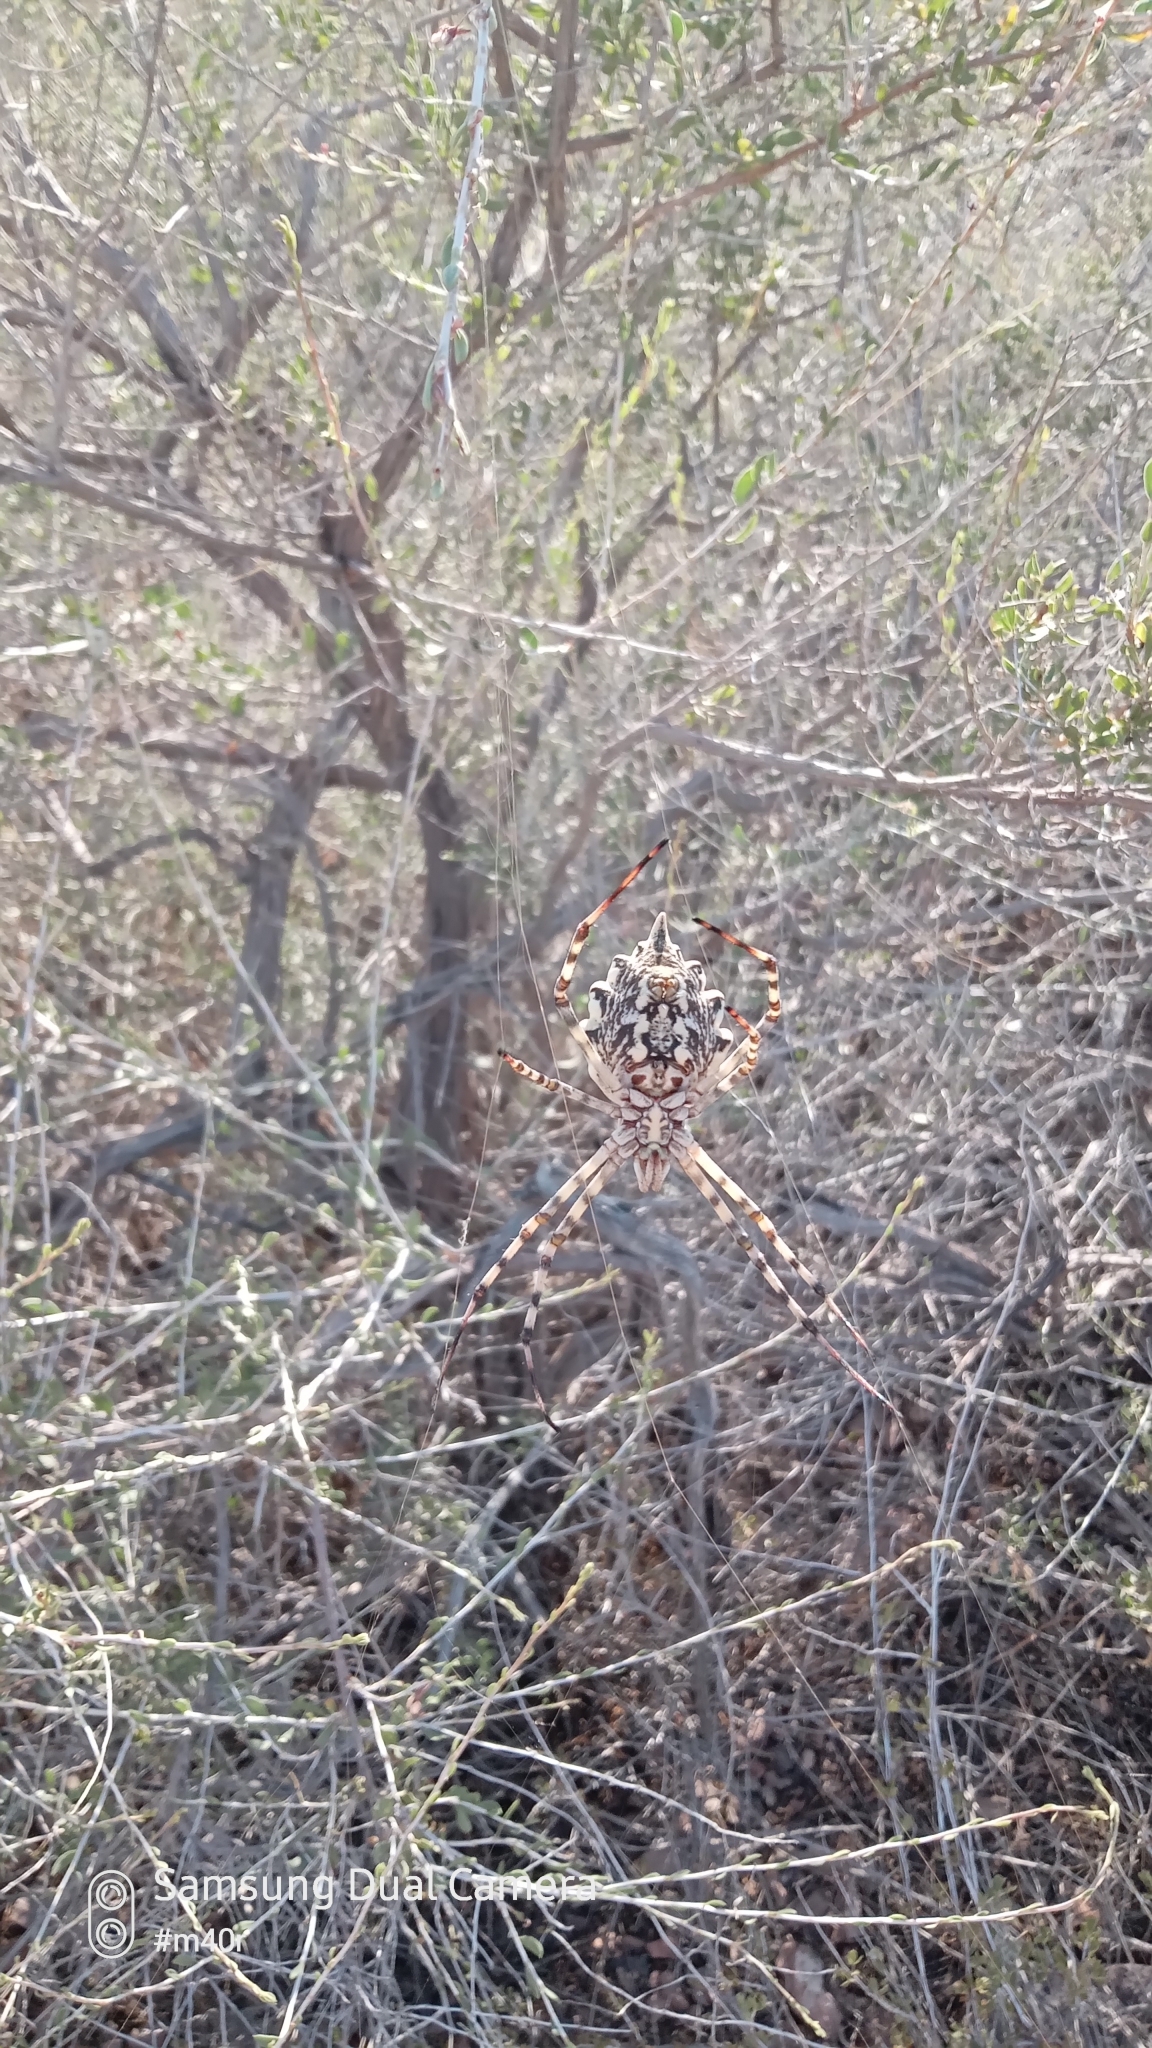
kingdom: Animalia
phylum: Arthropoda
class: Arachnida
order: Araneae
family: Araneidae
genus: Argiope
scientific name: Argiope lobata
